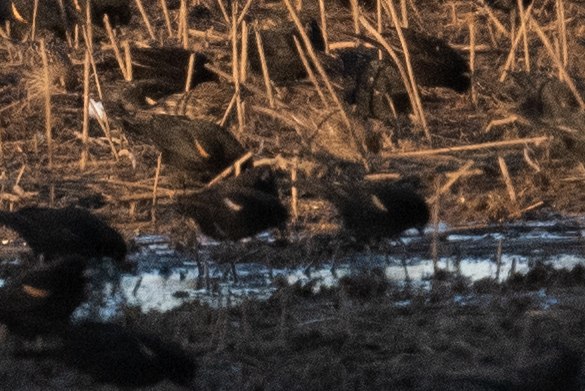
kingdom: Animalia
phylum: Chordata
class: Aves
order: Passeriformes
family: Icteridae
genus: Agelaius
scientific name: Agelaius phoeniceus
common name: Red-winged blackbird
